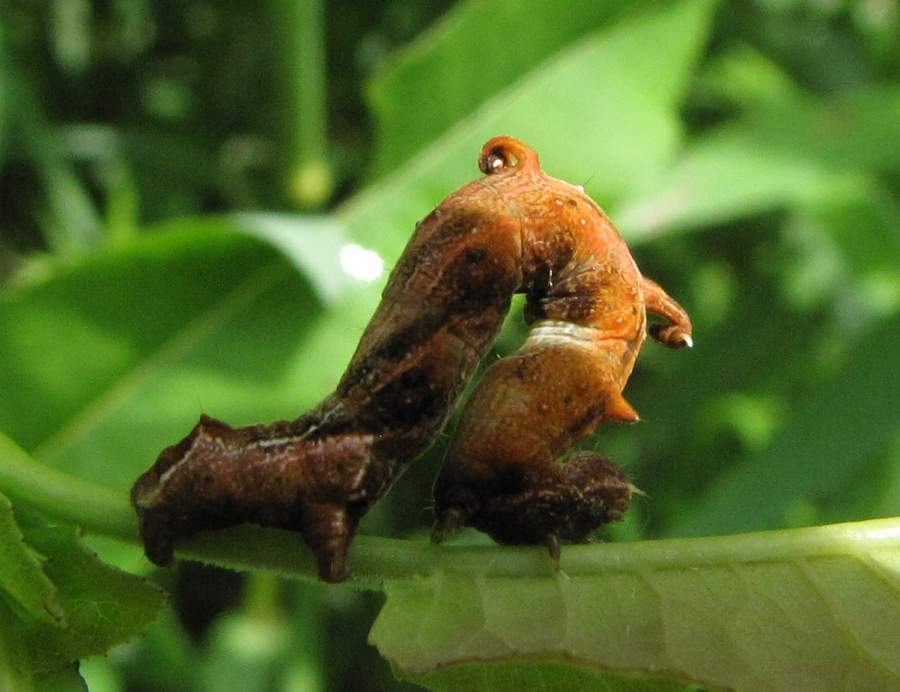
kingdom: Animalia
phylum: Arthropoda
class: Insecta
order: Lepidoptera
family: Geometridae
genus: Nematocampa
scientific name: Nematocampa resistaria
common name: Horned spanworm moth
